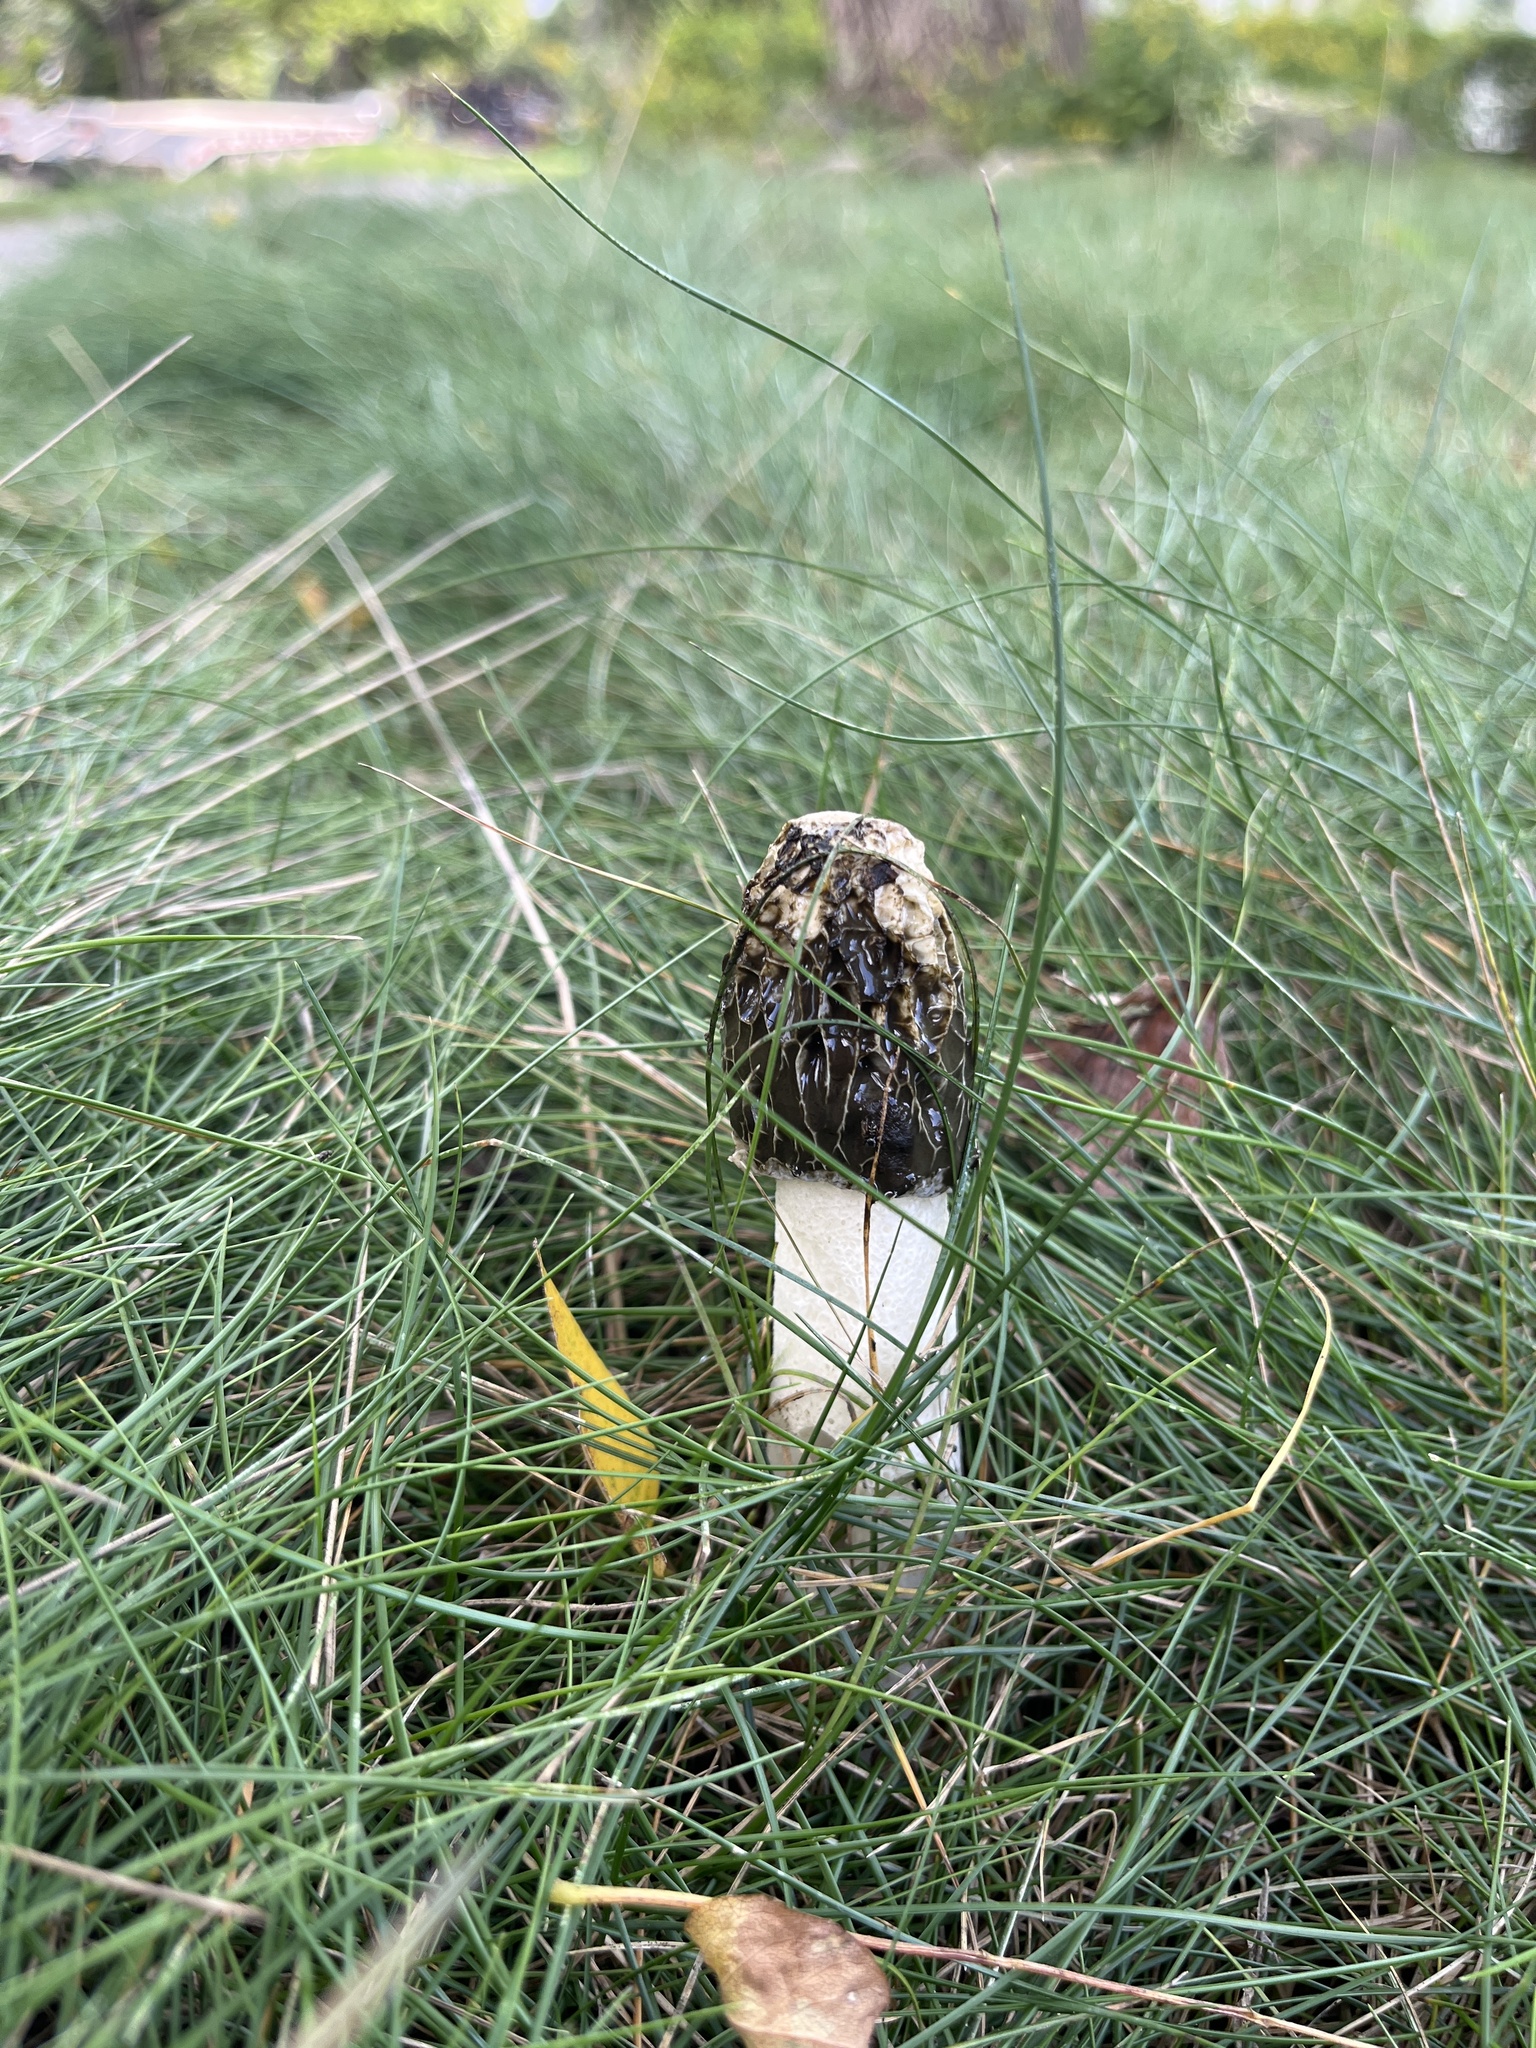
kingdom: Fungi
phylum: Basidiomycota
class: Agaricomycetes
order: Phallales
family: Phallaceae
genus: Phallus
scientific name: Phallus hadriani
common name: Sand stinkhorn
